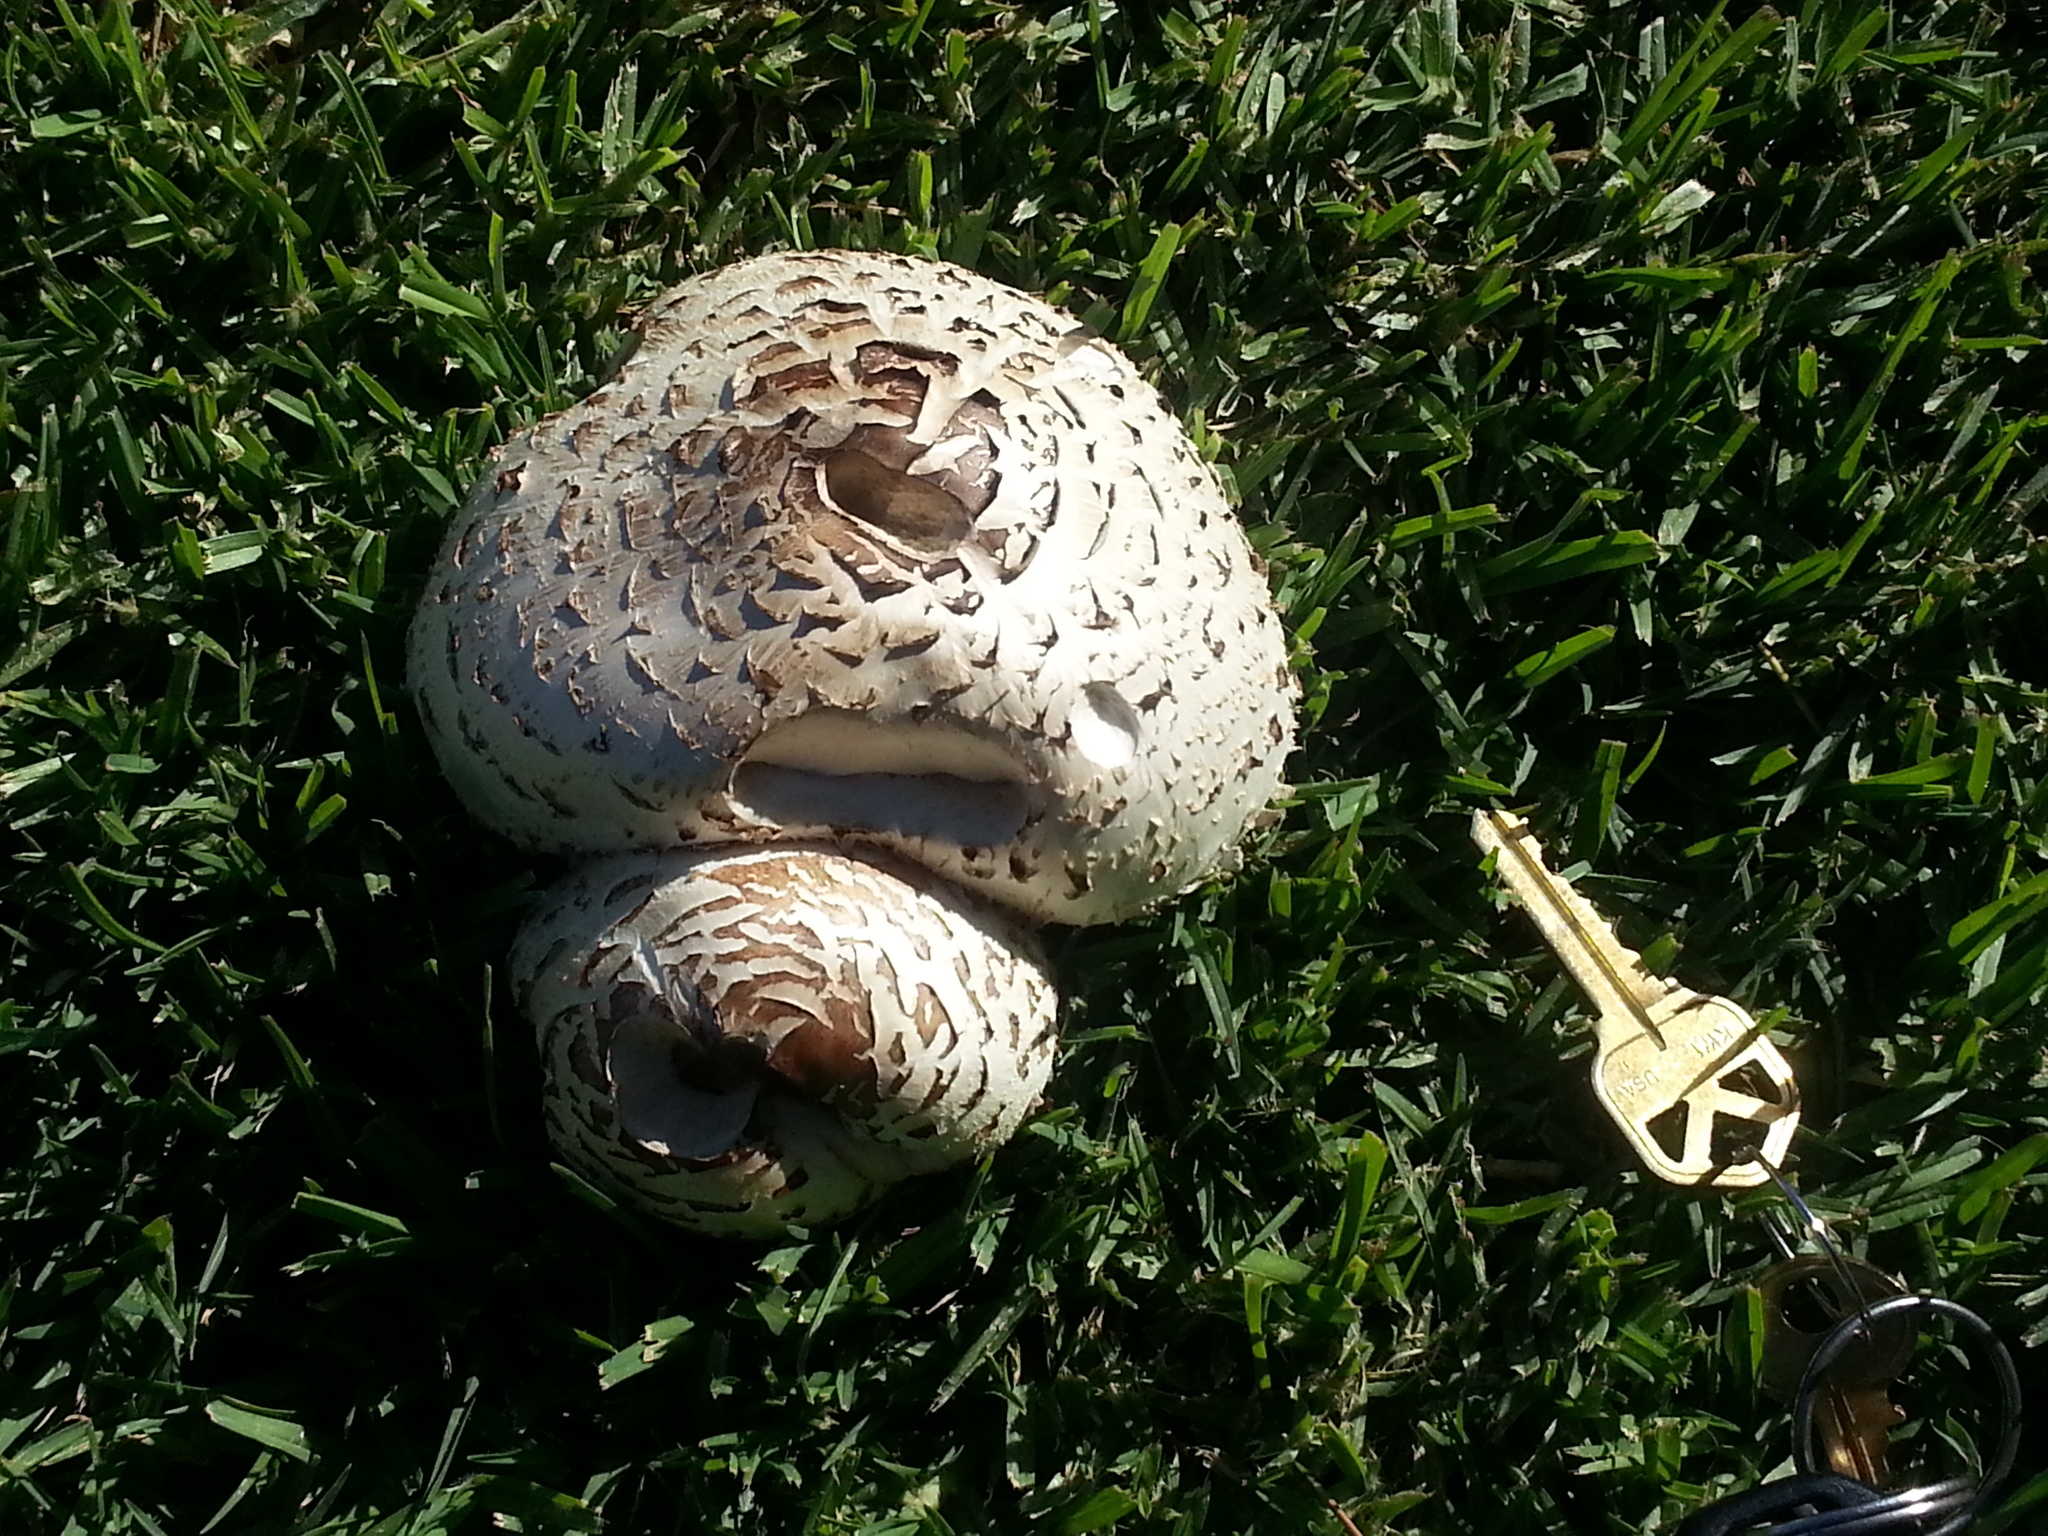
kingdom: Fungi
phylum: Basidiomycota
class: Agaricomycetes
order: Agaricales
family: Agaricaceae
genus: Chlorophyllum
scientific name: Chlorophyllum molybdites
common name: False parasol
